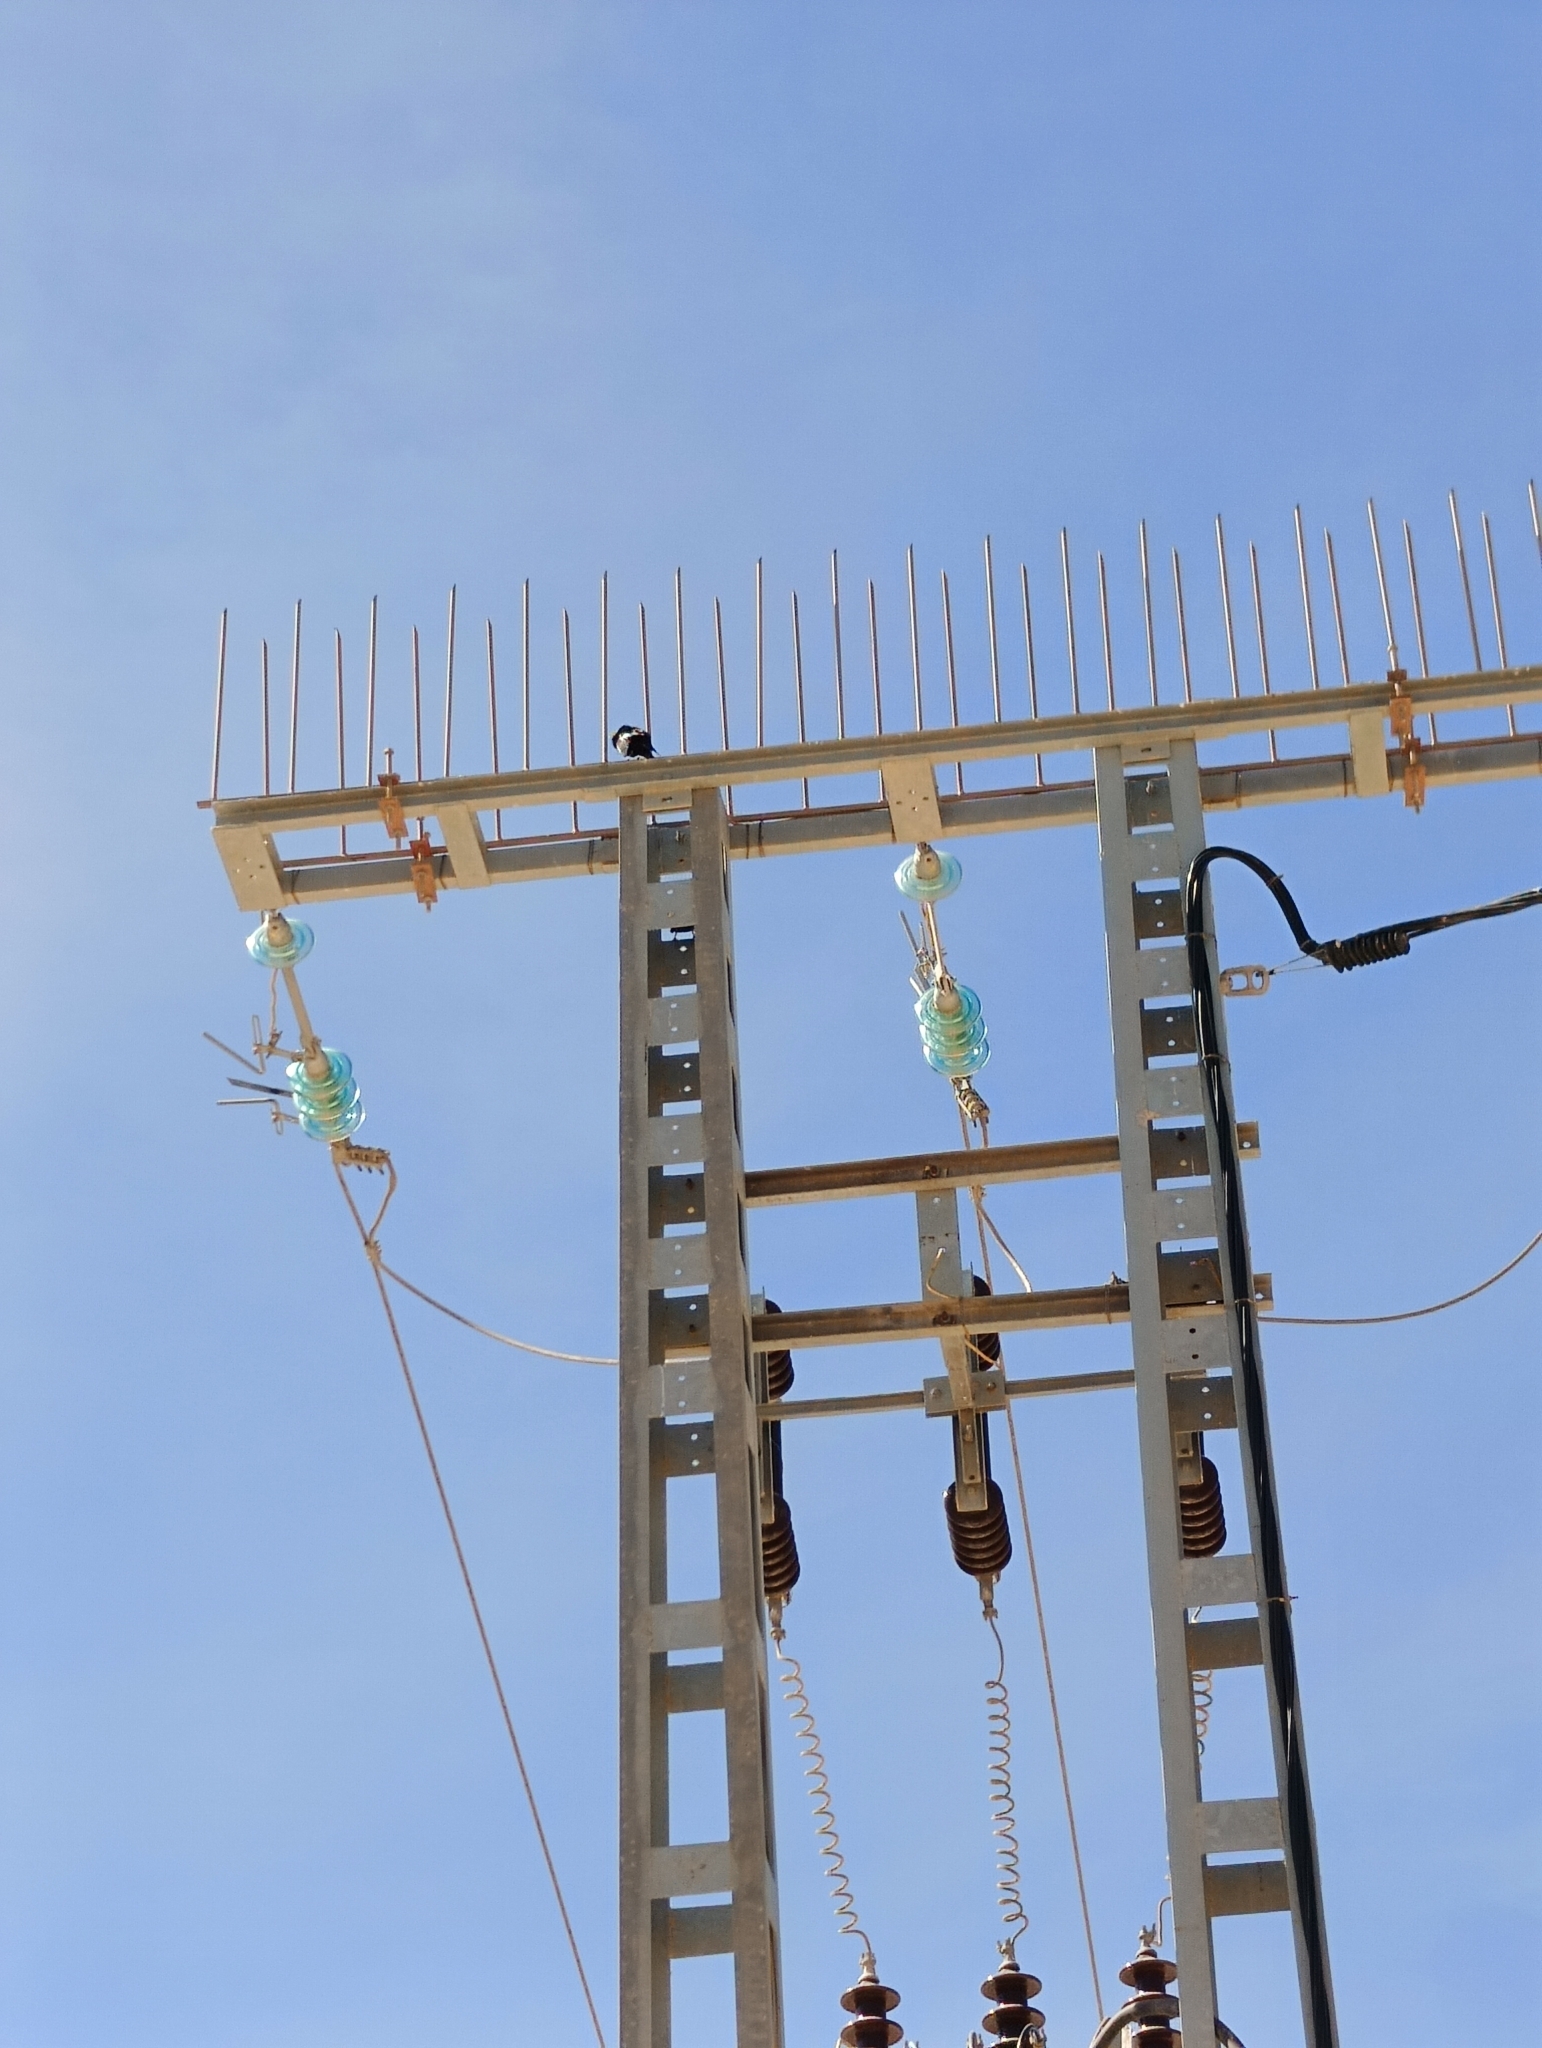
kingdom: Animalia
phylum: Chordata
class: Aves
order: Passeriformes
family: Sturnidae
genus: Sturnus
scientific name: Sturnus unicolor
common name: Spotless starling
